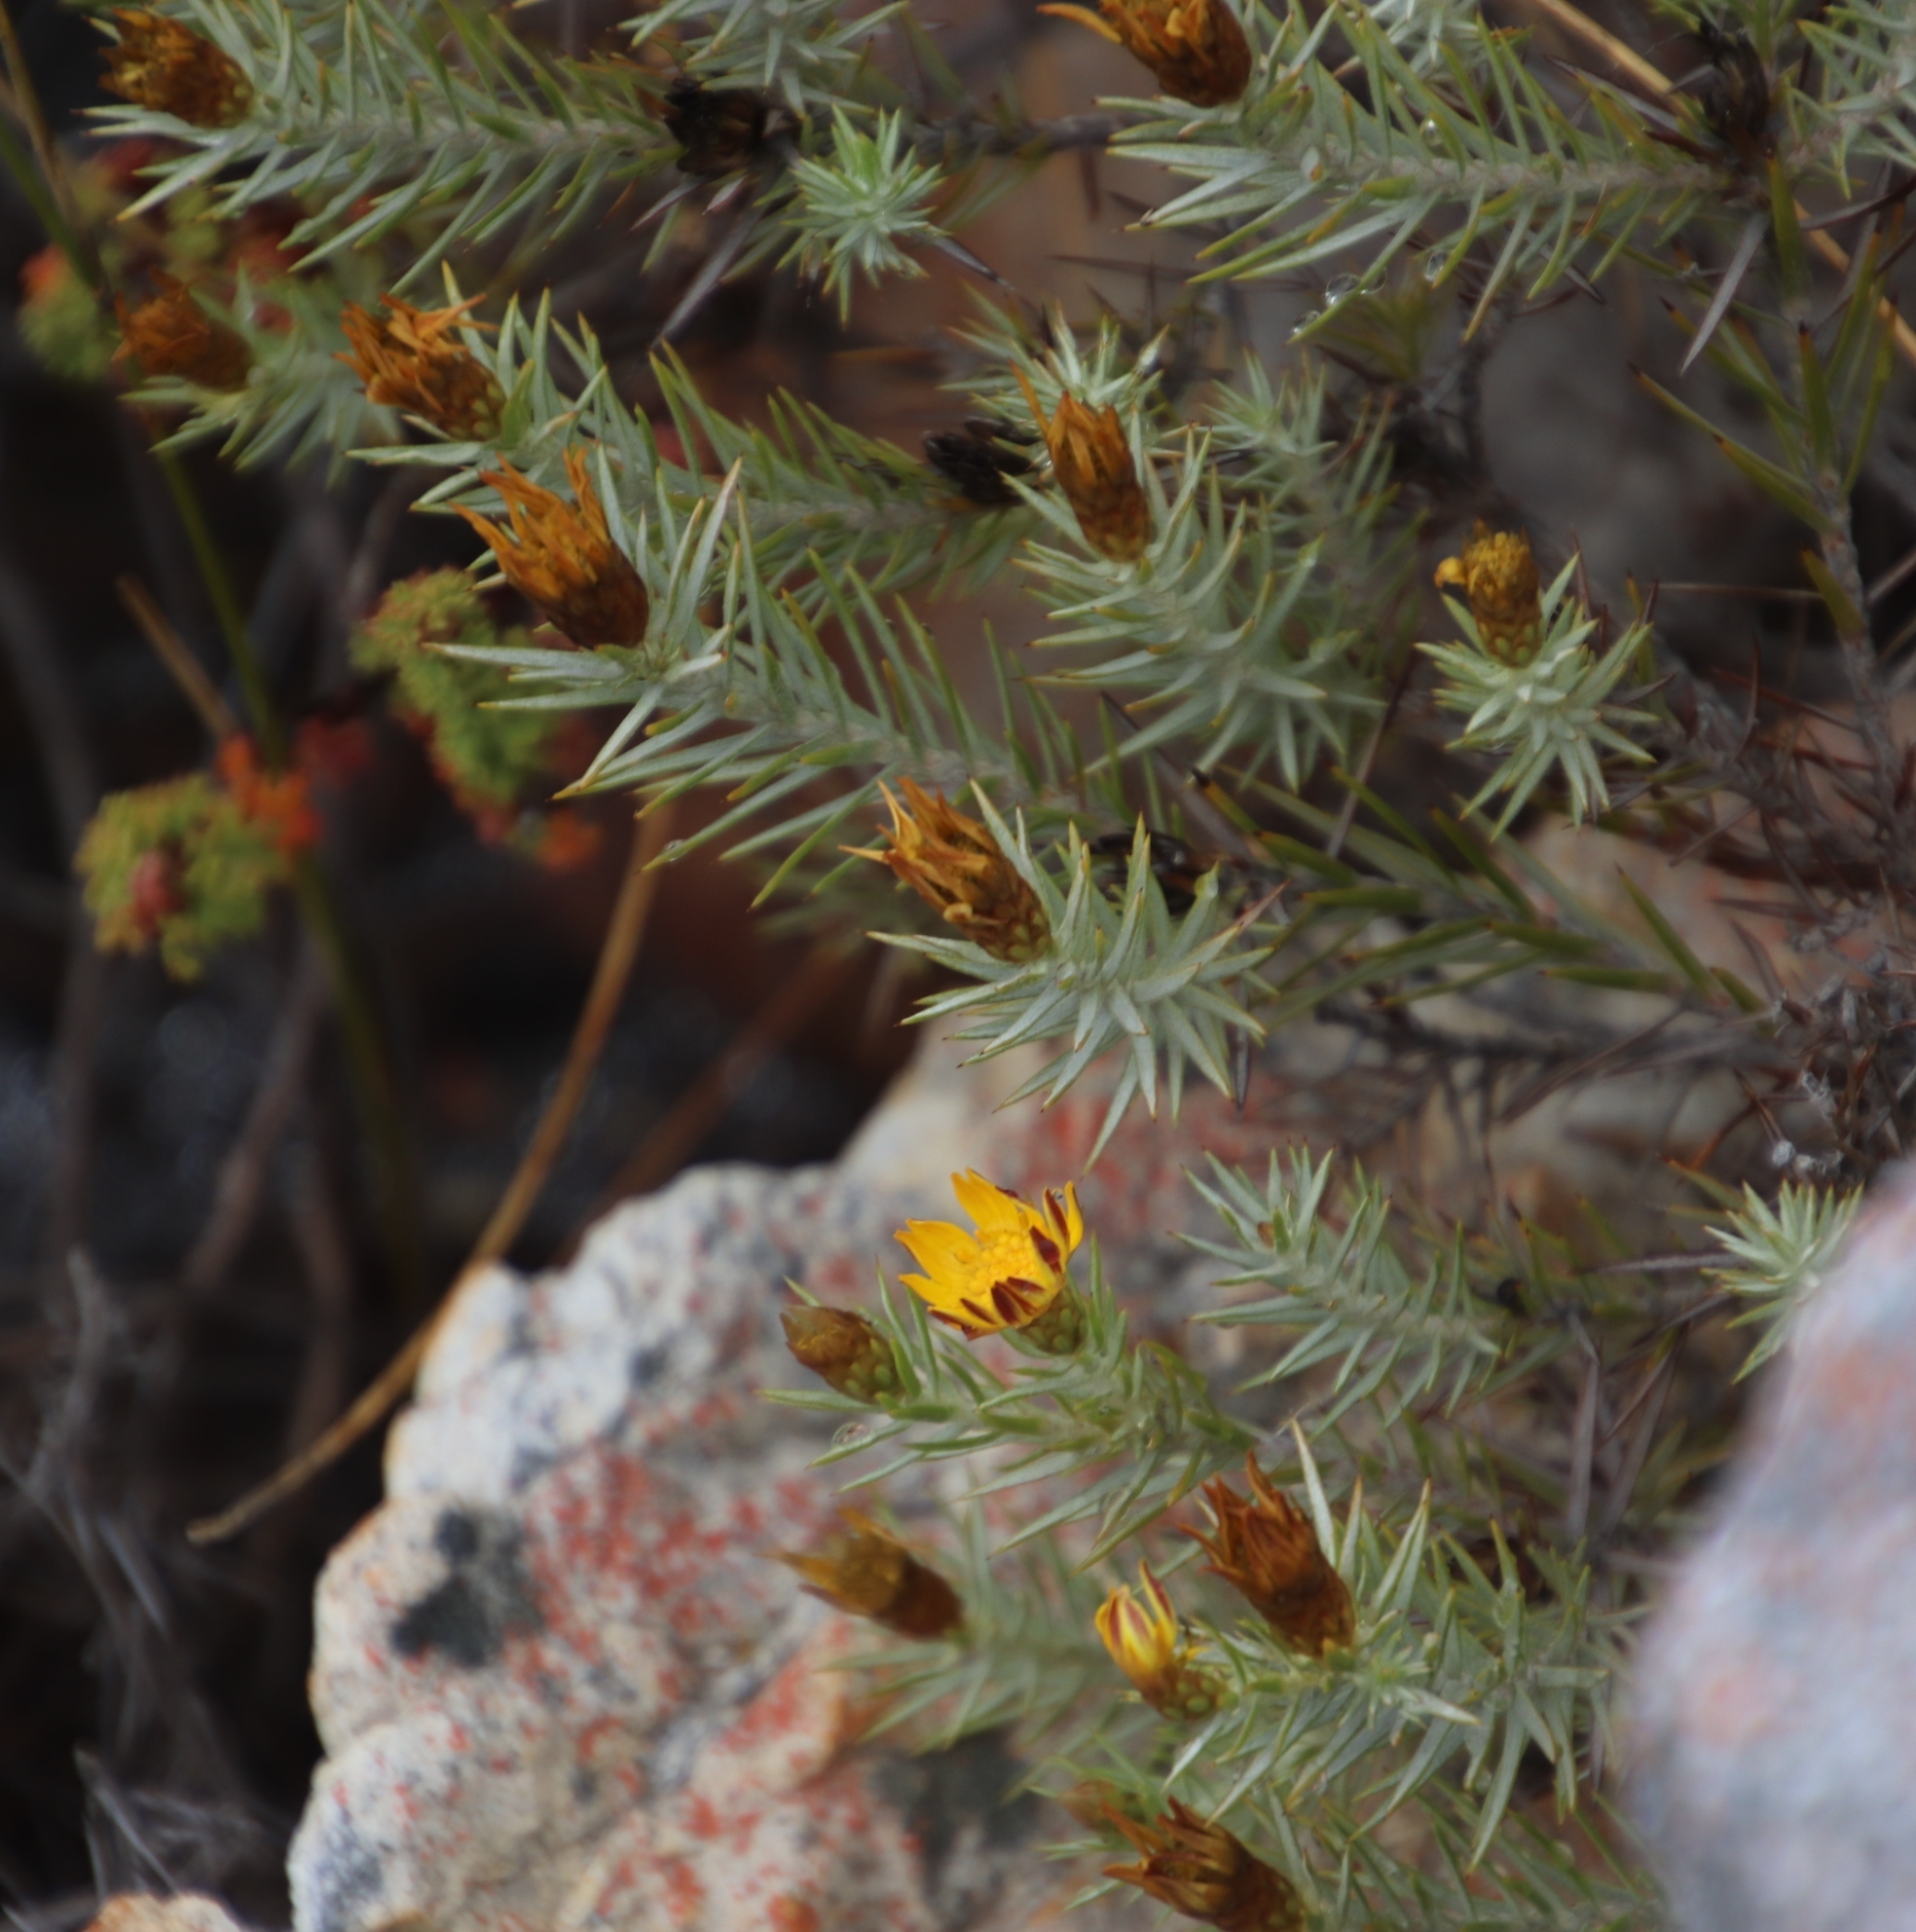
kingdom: Plantae
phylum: Tracheophyta
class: Magnoliopsida
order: Asterales
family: Asteraceae
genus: Oedera
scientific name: Oedera pungens
